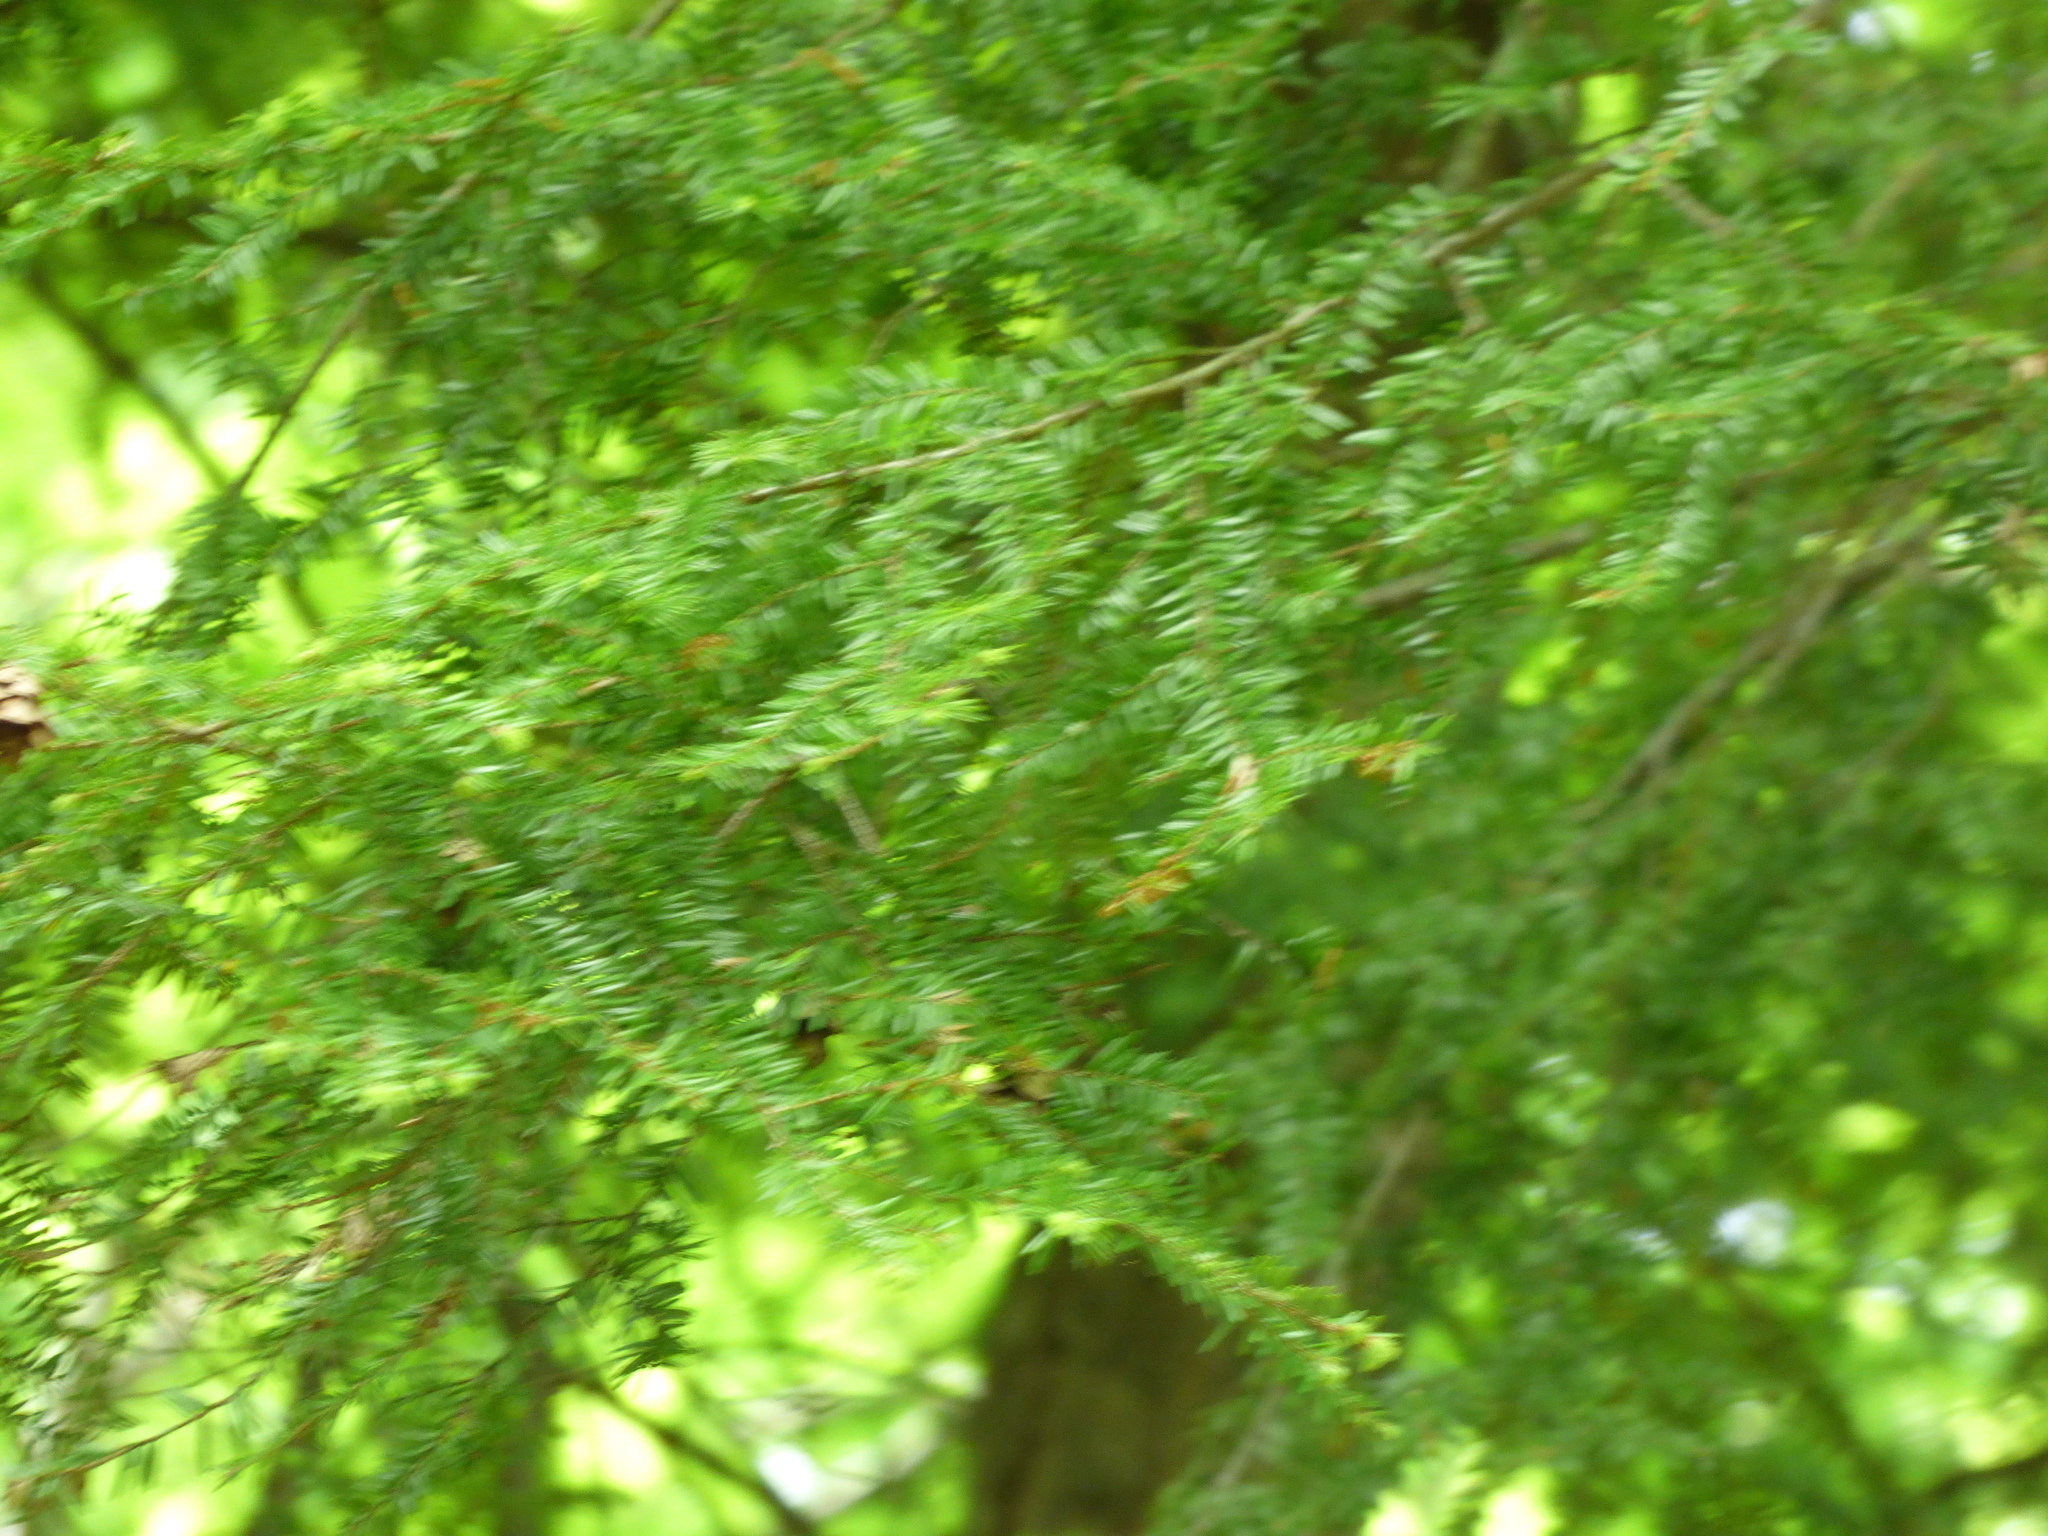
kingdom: Plantae
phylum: Tracheophyta
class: Pinopsida
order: Pinales
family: Pinaceae
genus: Tsuga
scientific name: Tsuga canadensis
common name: Eastern hemlock
